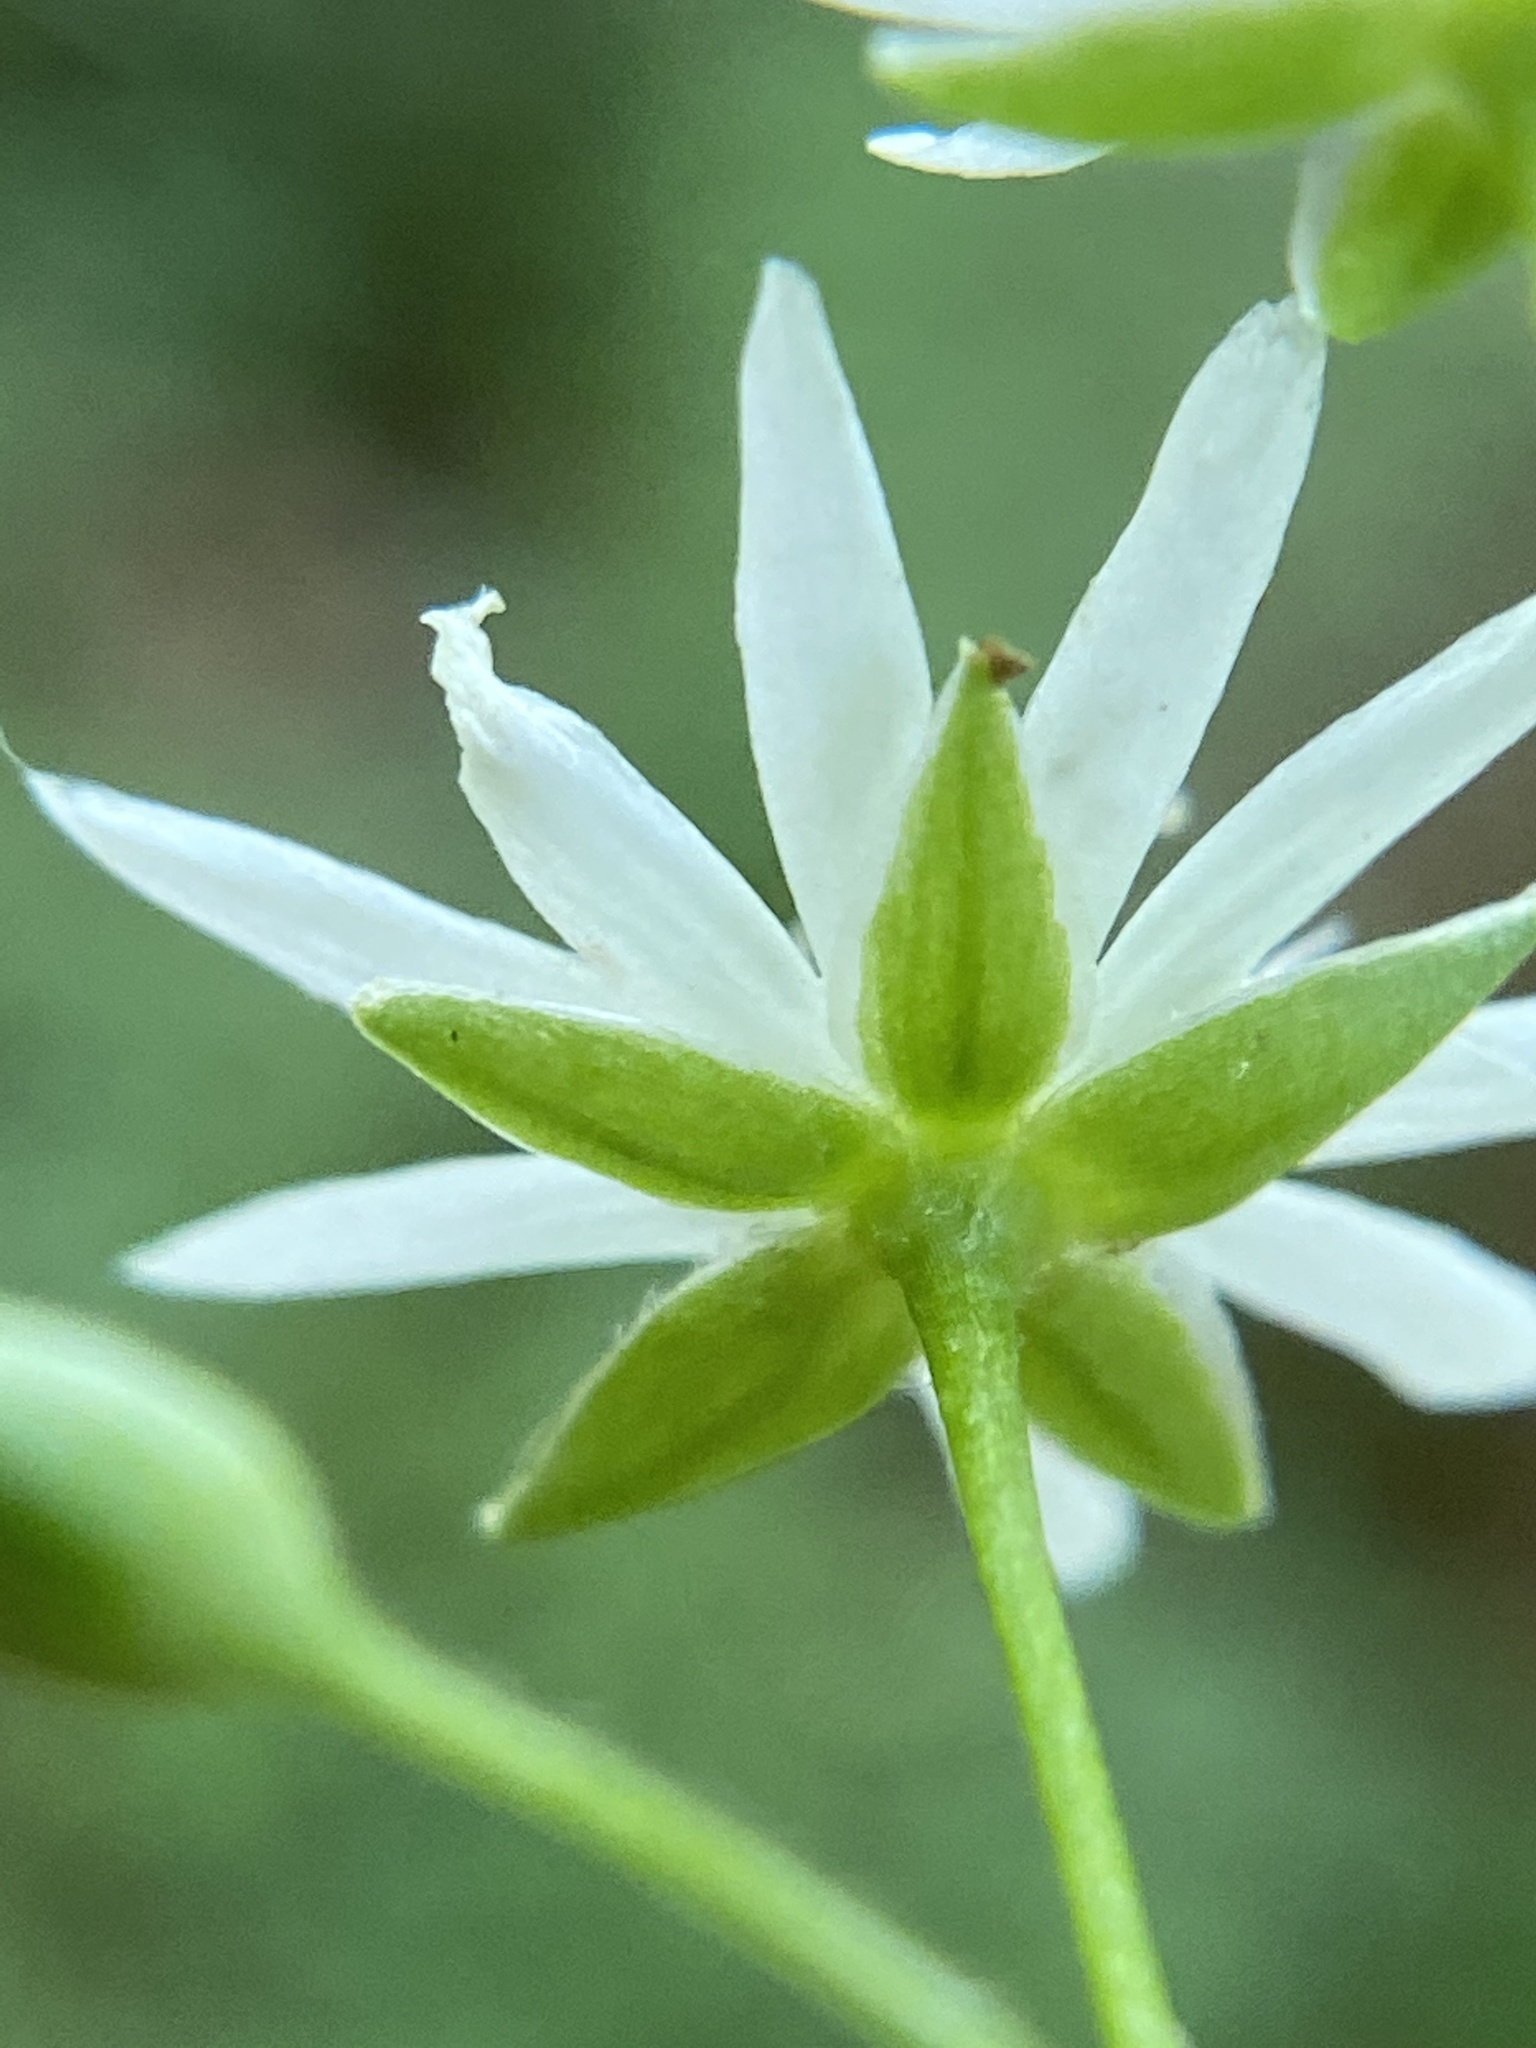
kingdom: Plantae
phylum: Tracheophyta
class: Magnoliopsida
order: Caryophyllales
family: Caryophyllaceae
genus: Stellaria
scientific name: Stellaria pubera
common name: Star chickweed
